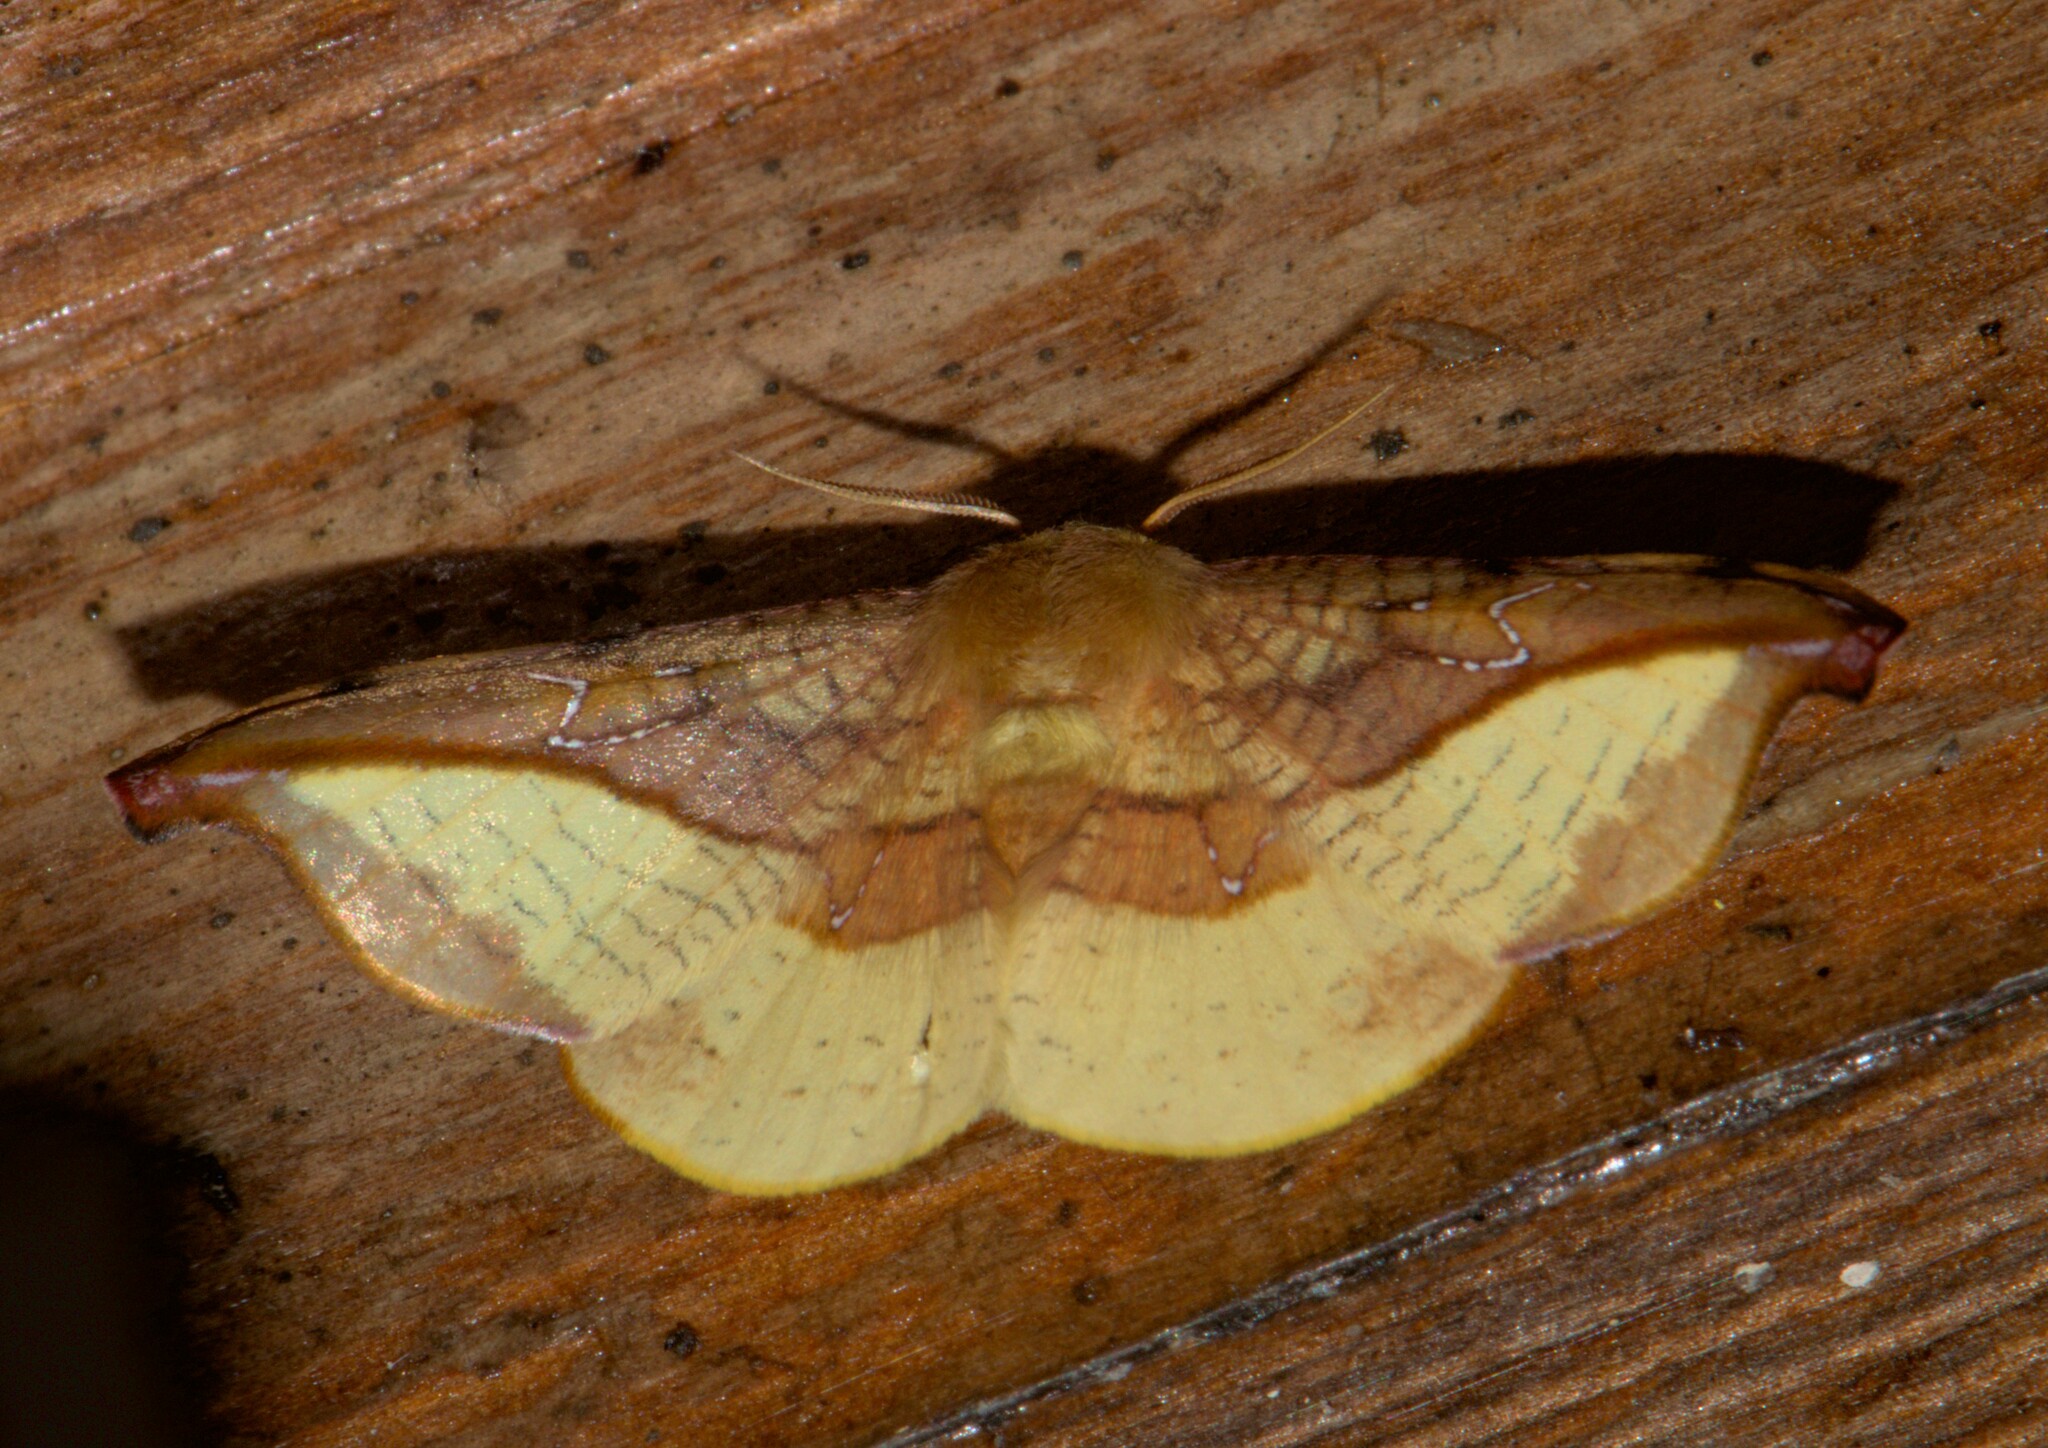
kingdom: Animalia
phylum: Arthropoda
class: Insecta
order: Lepidoptera
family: Drepanidae
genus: Oreta
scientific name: Oreta vatama
